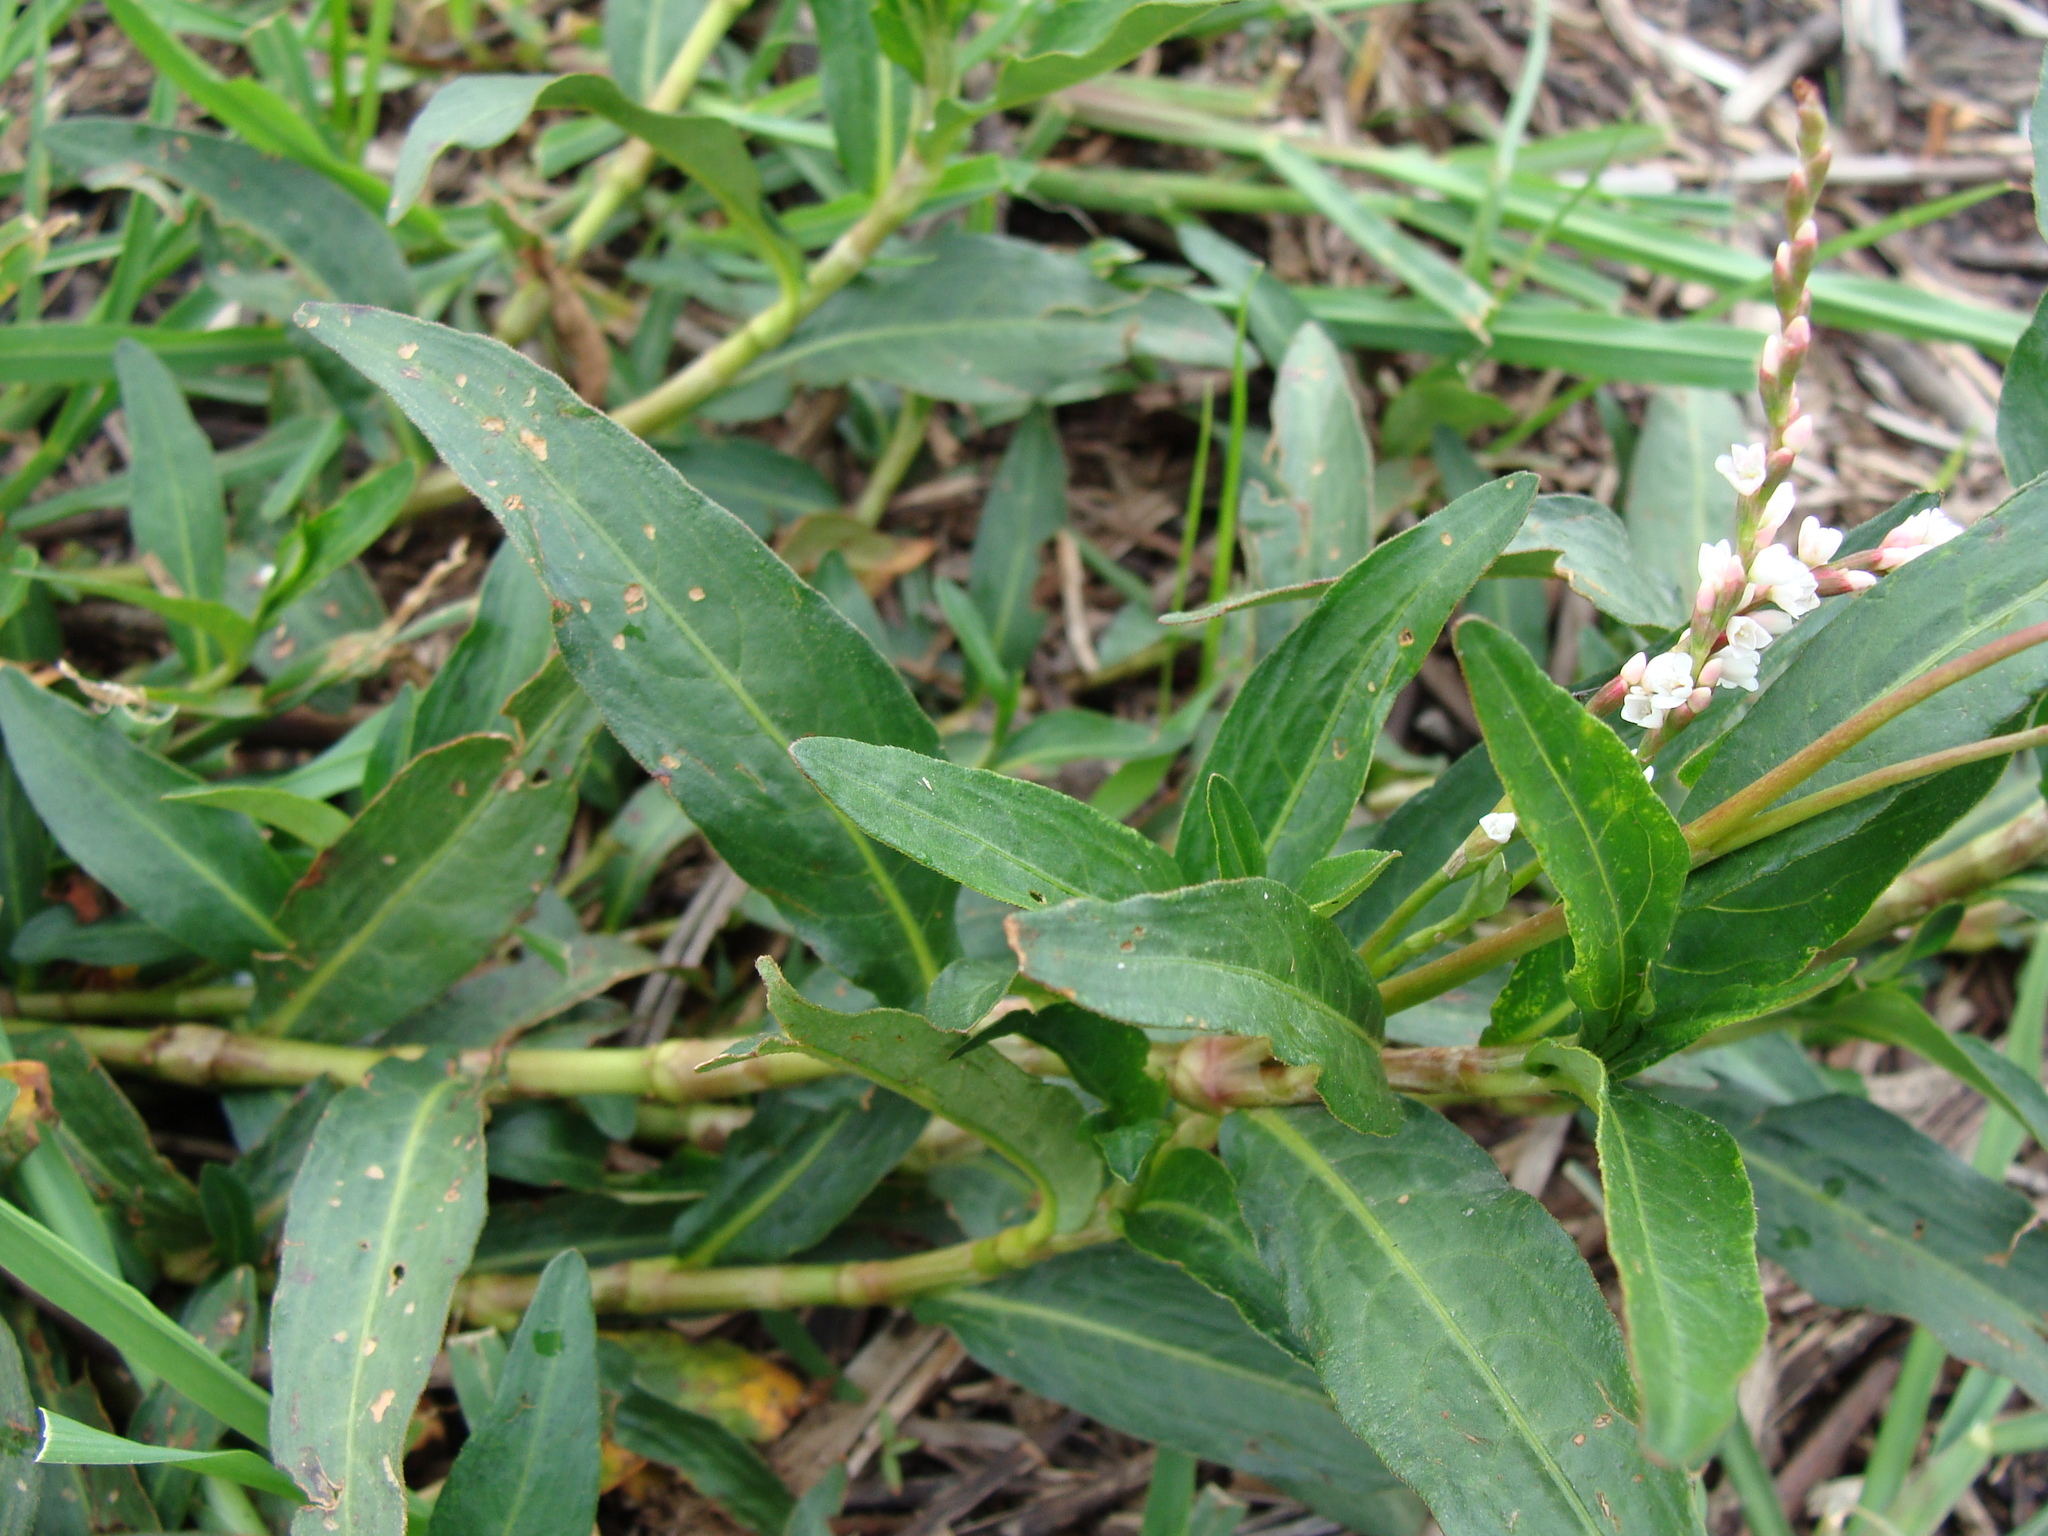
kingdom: Plantae
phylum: Tracheophyta
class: Magnoliopsida
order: Caryophyllales
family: Polygonaceae
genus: Persicaria
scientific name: Persicaria punctata
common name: Dotted smartweed
